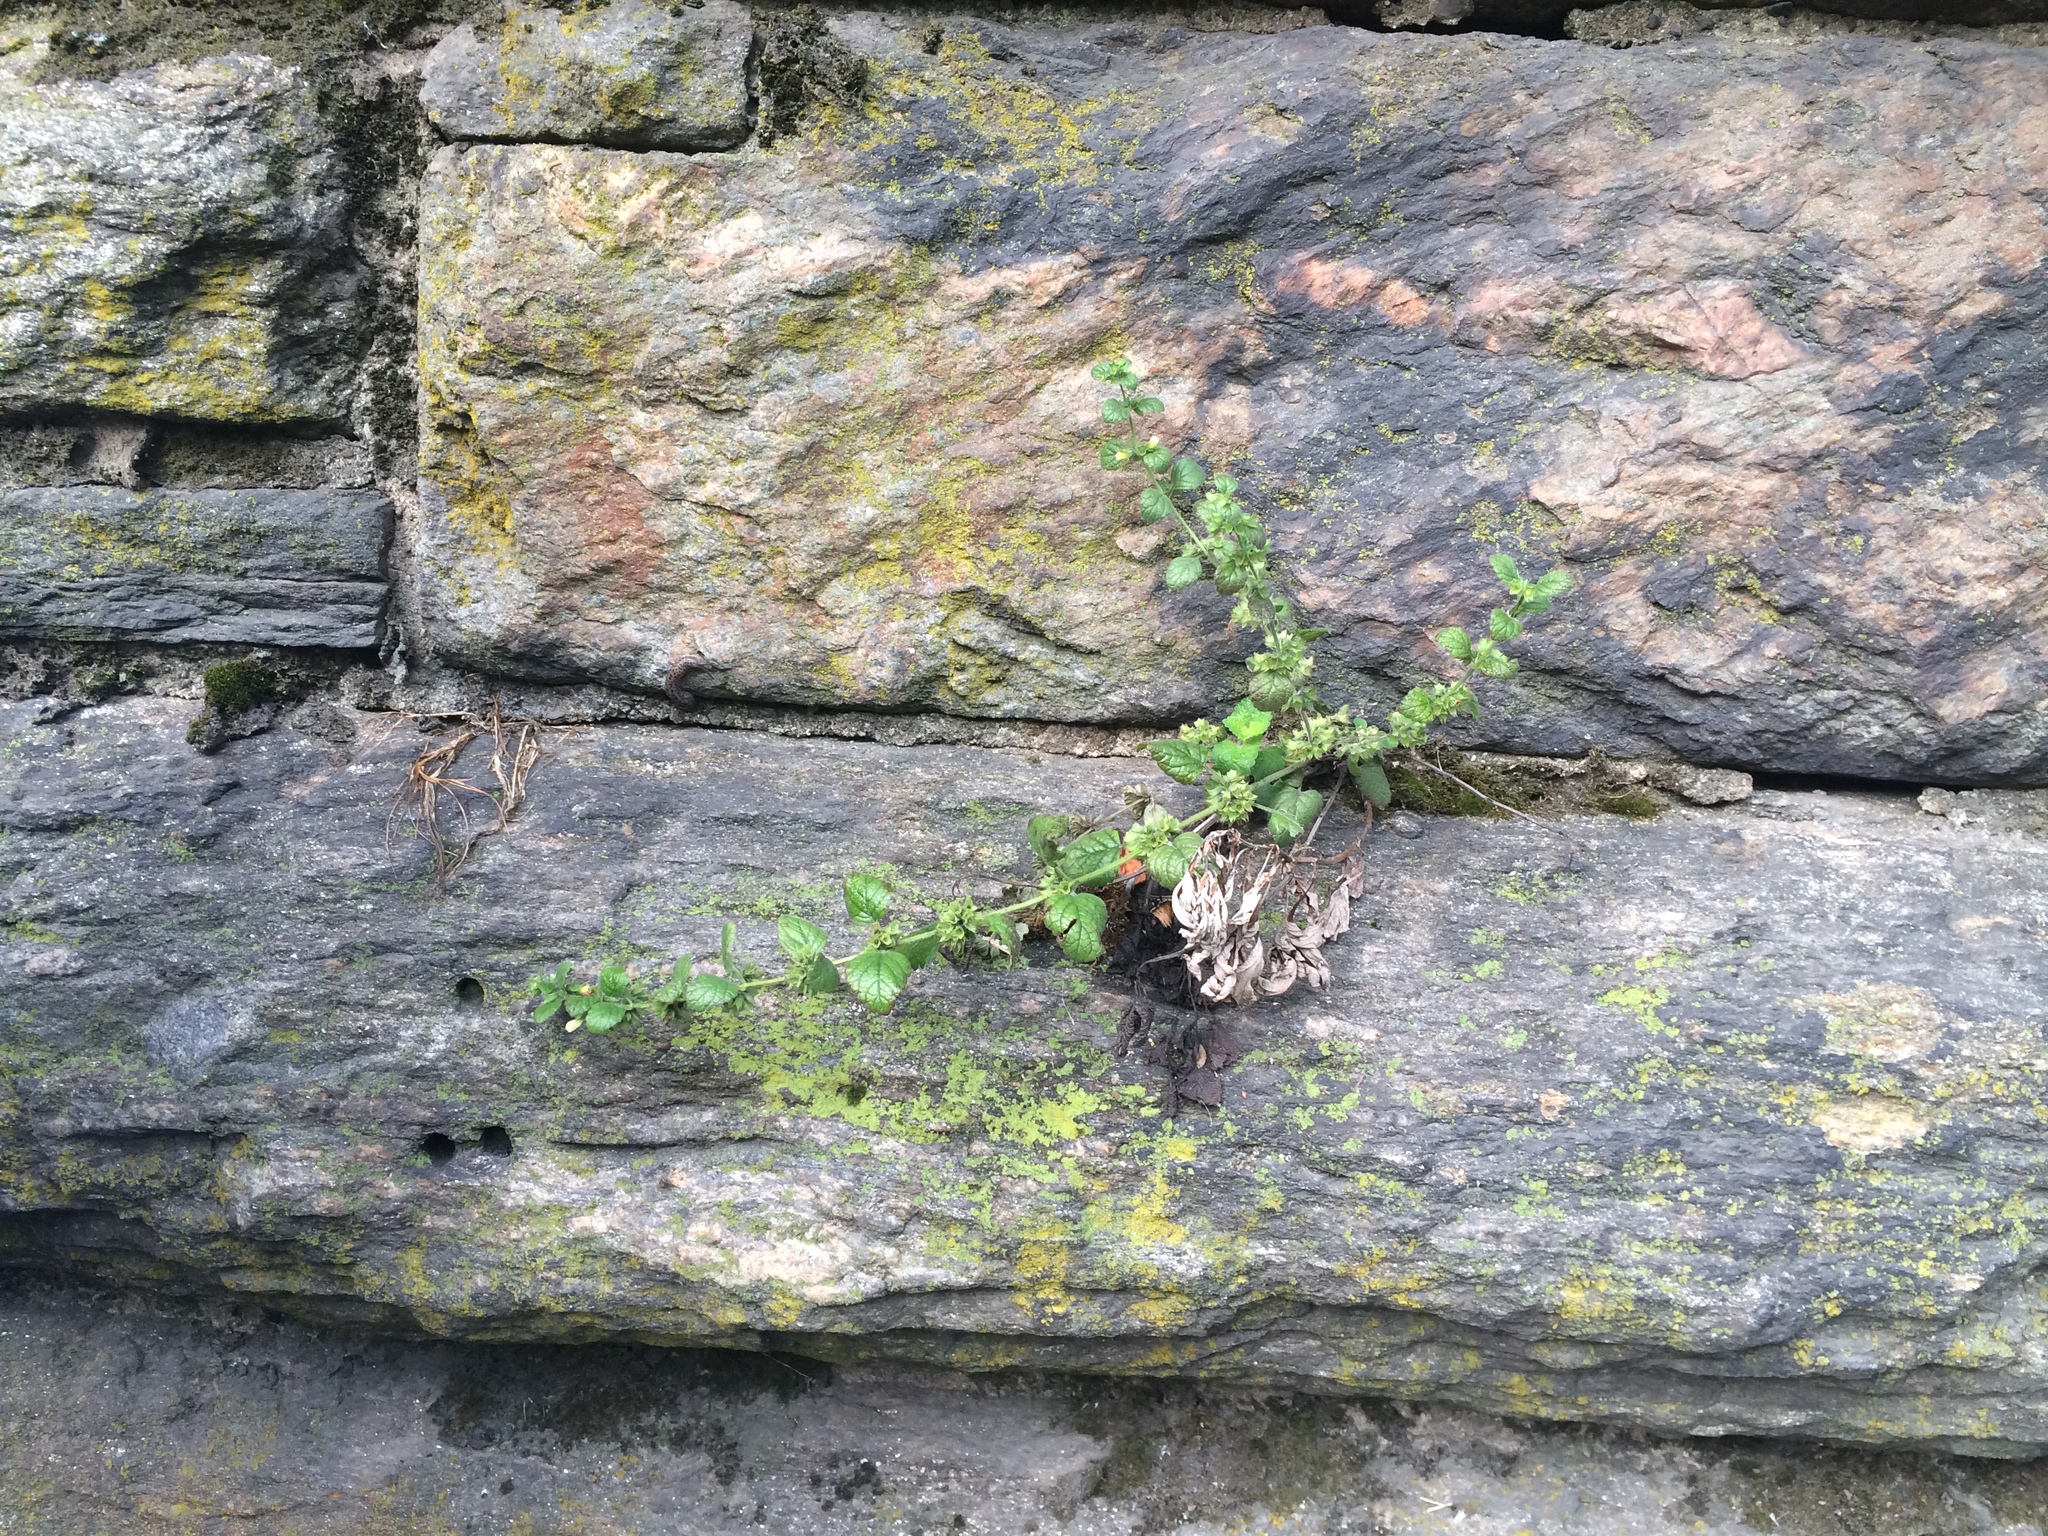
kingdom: Plantae
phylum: Tracheophyta
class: Magnoliopsida
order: Lamiales
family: Lamiaceae
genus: Melissa
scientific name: Melissa officinalis
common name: Balm
